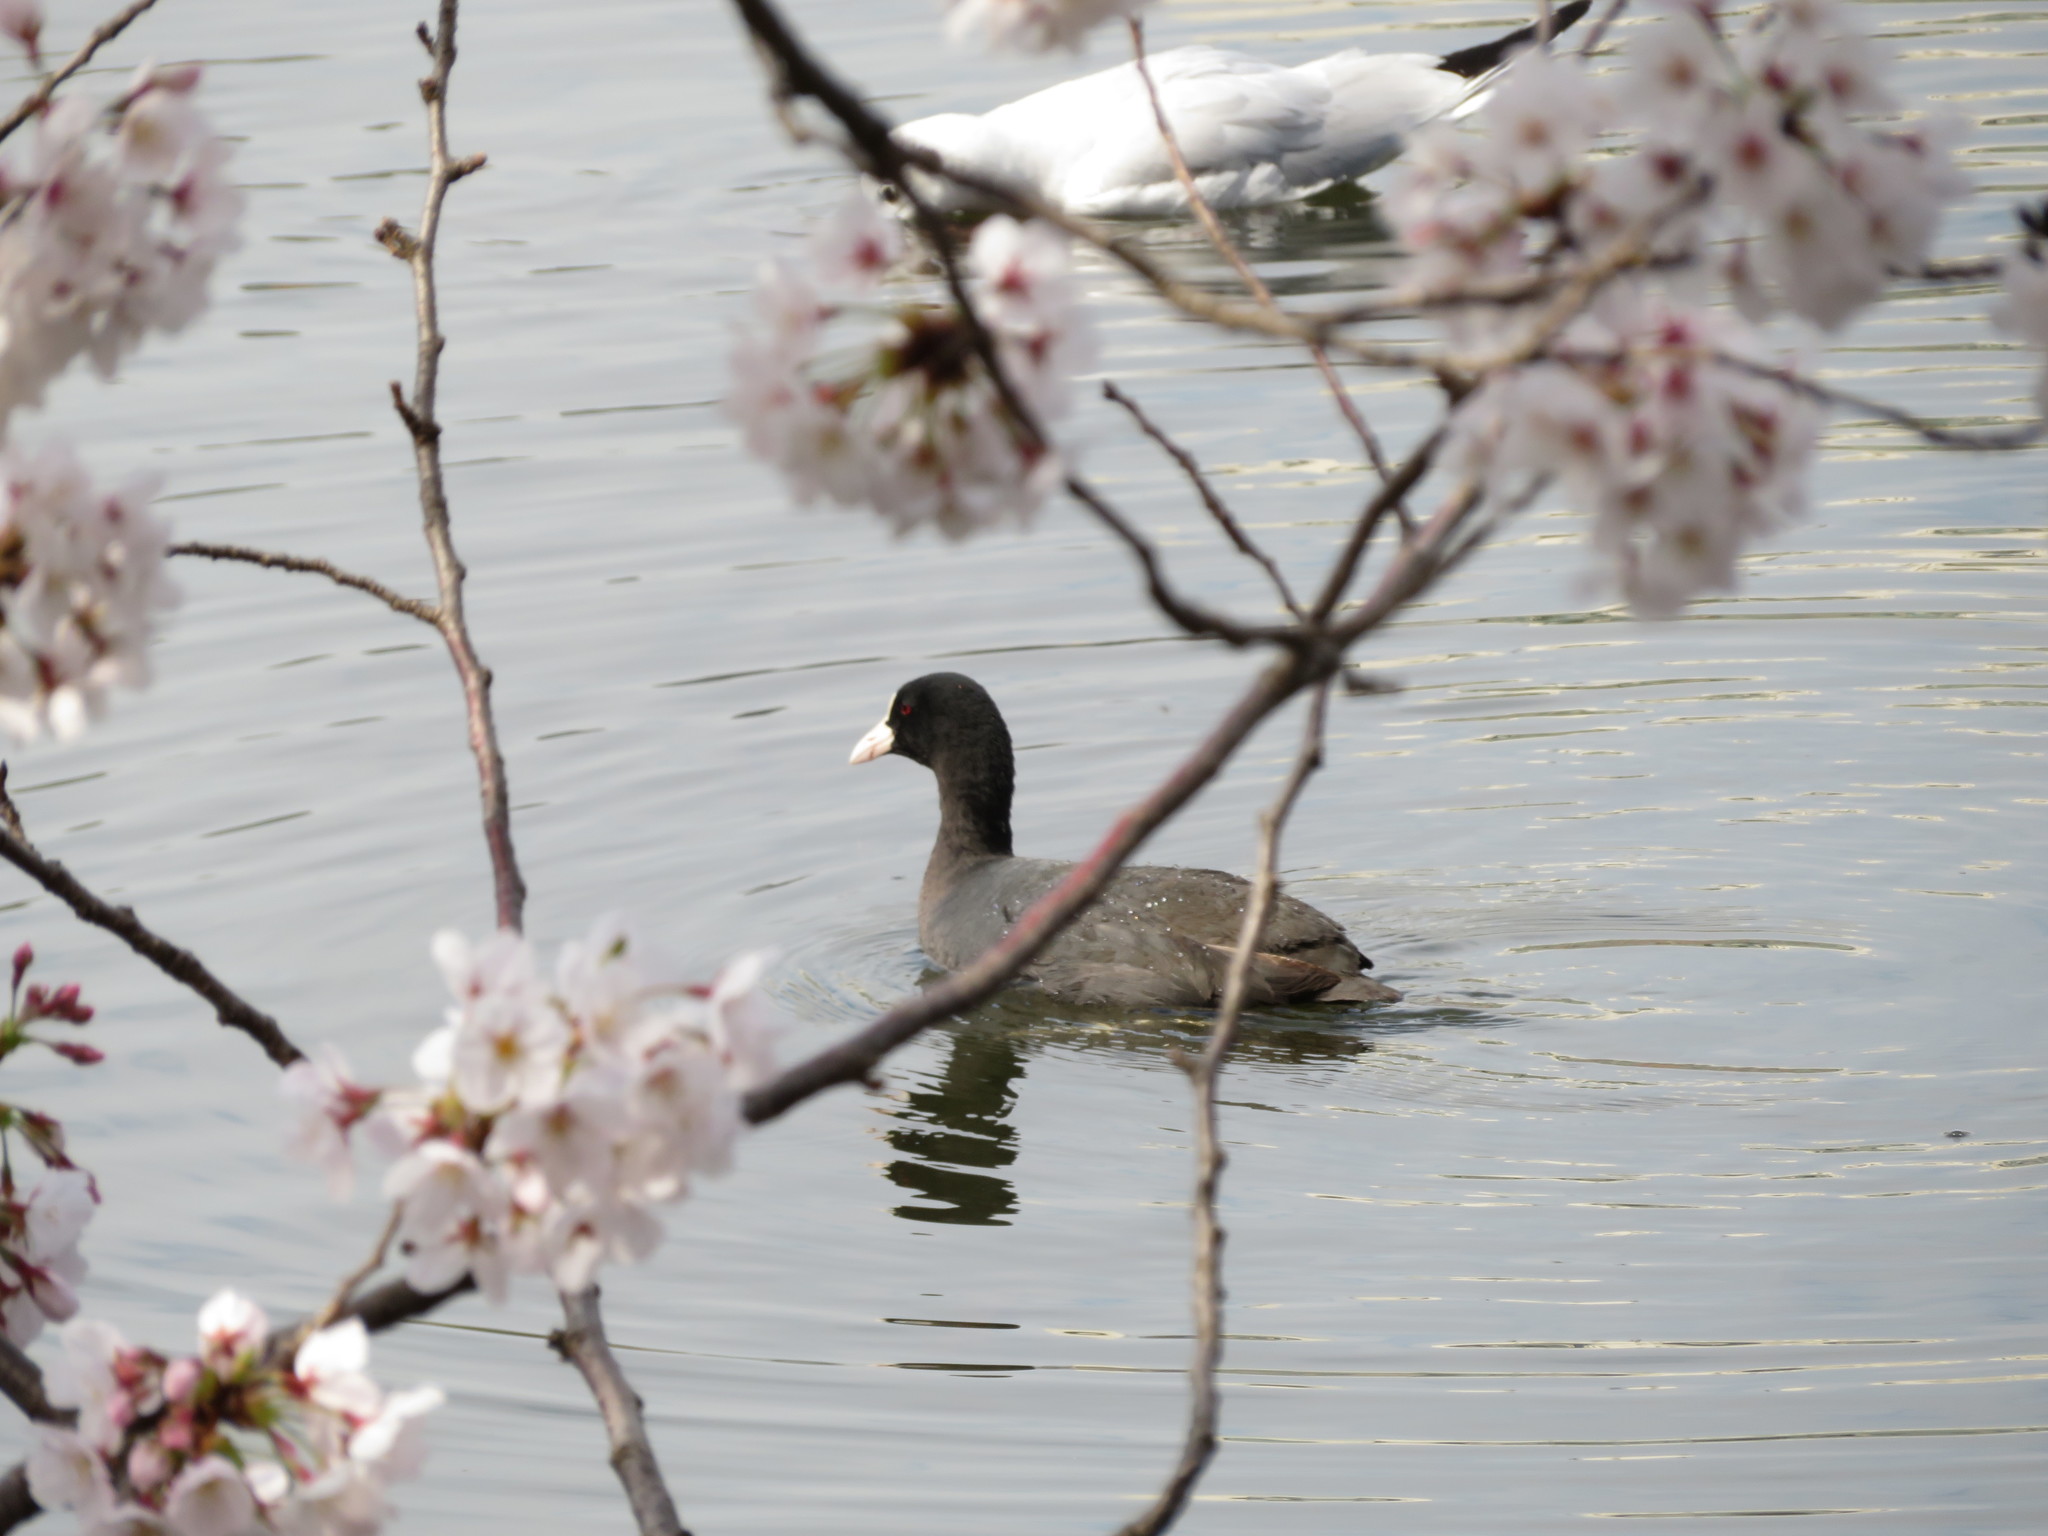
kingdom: Animalia
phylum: Chordata
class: Aves
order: Gruiformes
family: Rallidae
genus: Fulica
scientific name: Fulica atra
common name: Eurasian coot
